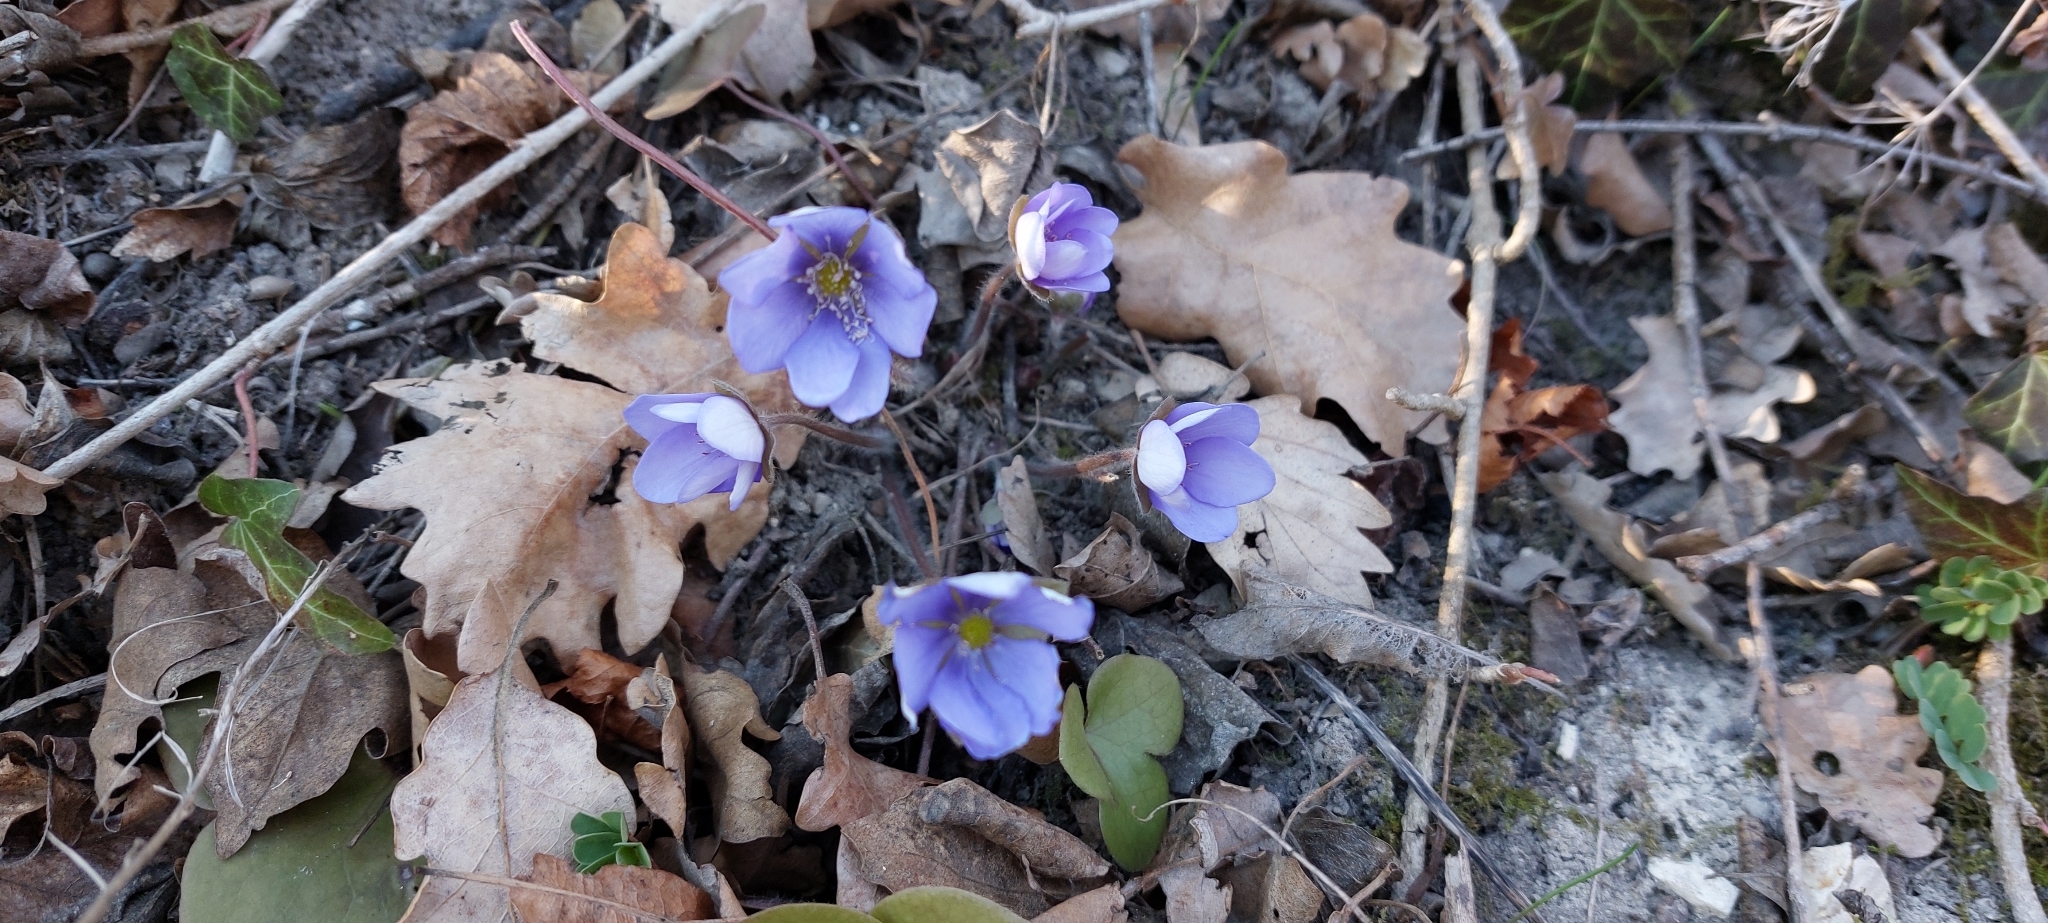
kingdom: Plantae
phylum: Tracheophyta
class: Magnoliopsida
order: Ranunculales
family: Ranunculaceae
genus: Hepatica
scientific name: Hepatica nobilis
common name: Liverleaf
